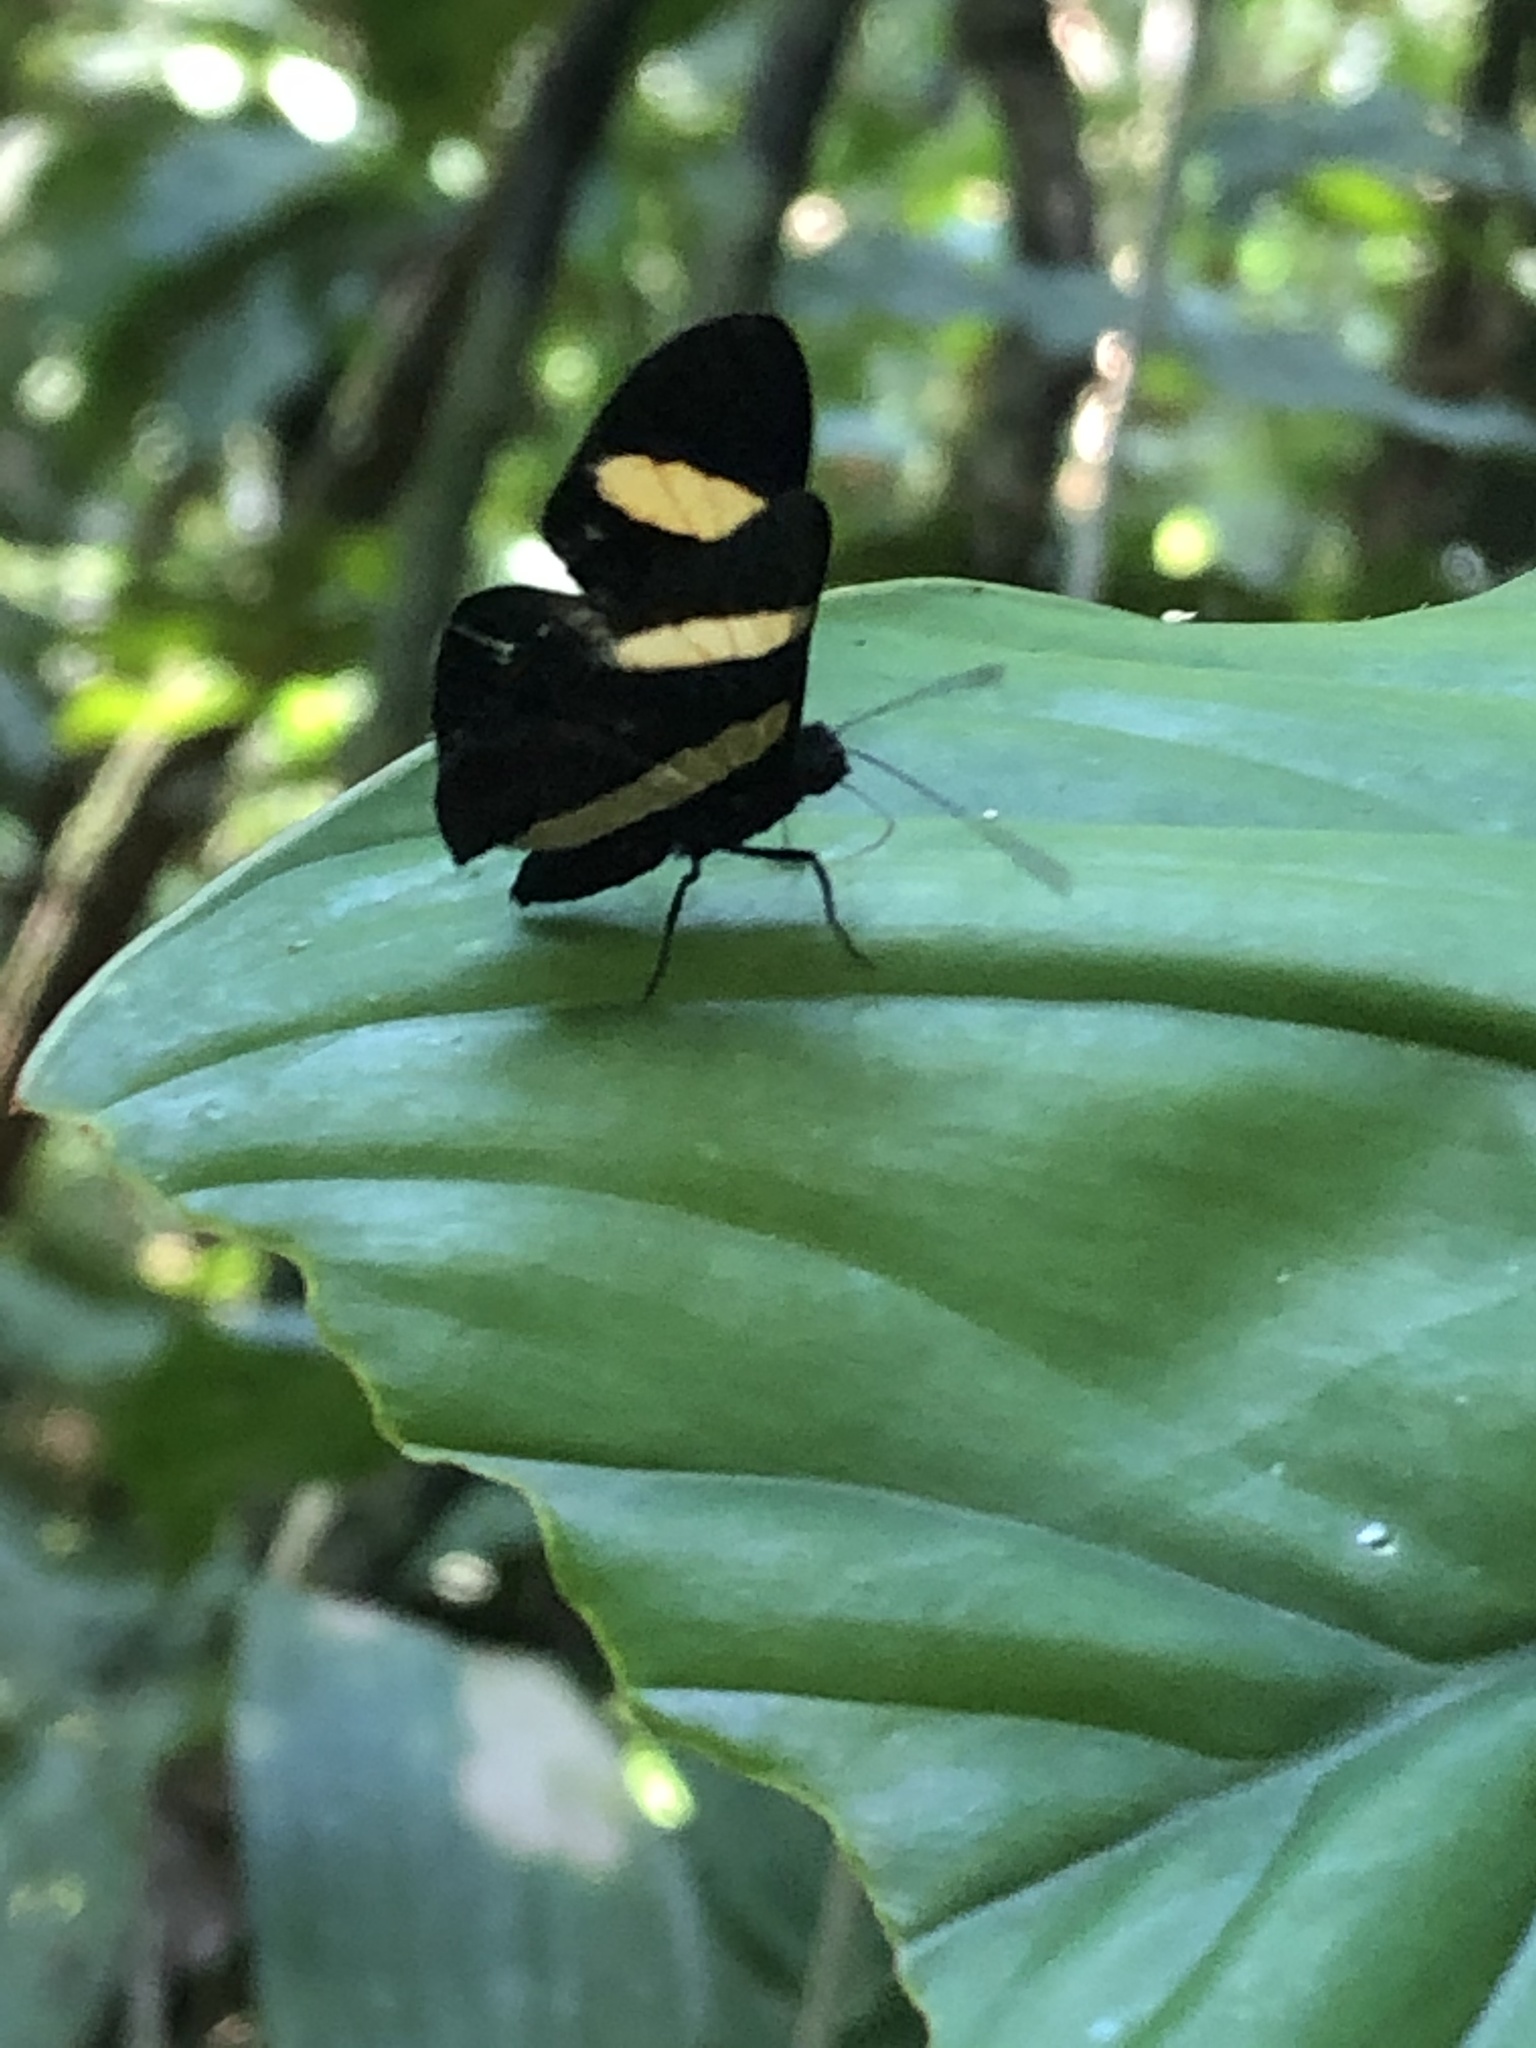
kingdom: Animalia
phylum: Arthropoda
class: Insecta
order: Lepidoptera
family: Lycaenidae
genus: Melanis
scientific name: Melanis agyrtus
